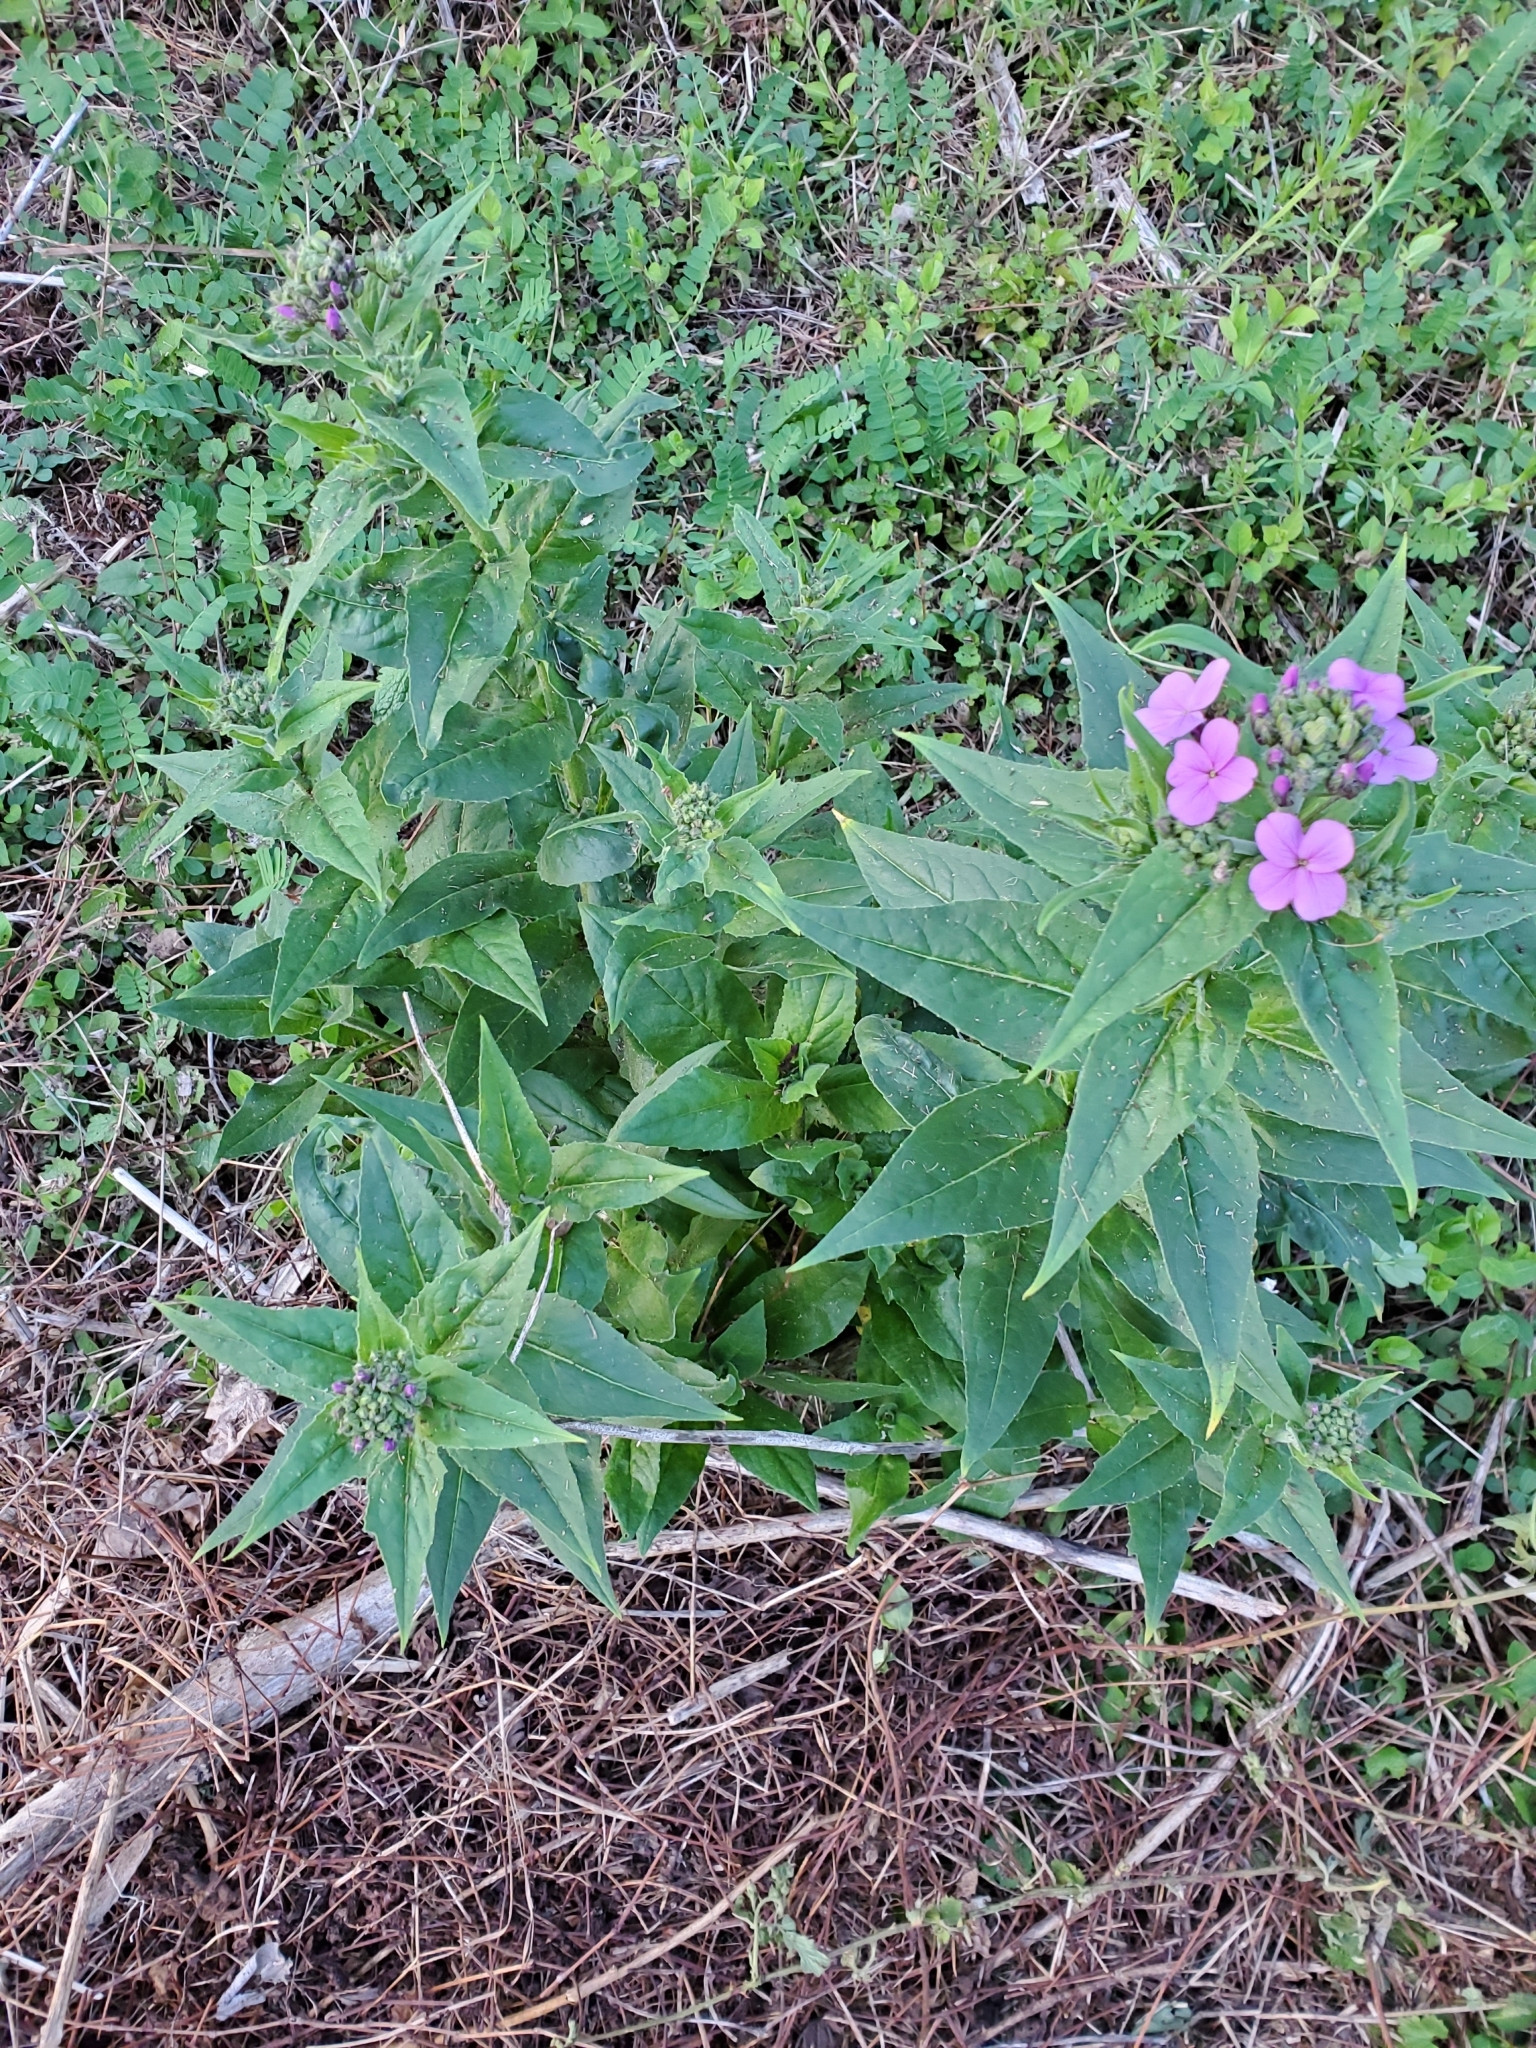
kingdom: Plantae
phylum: Tracheophyta
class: Magnoliopsida
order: Brassicales
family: Brassicaceae
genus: Hesperis
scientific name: Hesperis matronalis
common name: Dame's-violet
